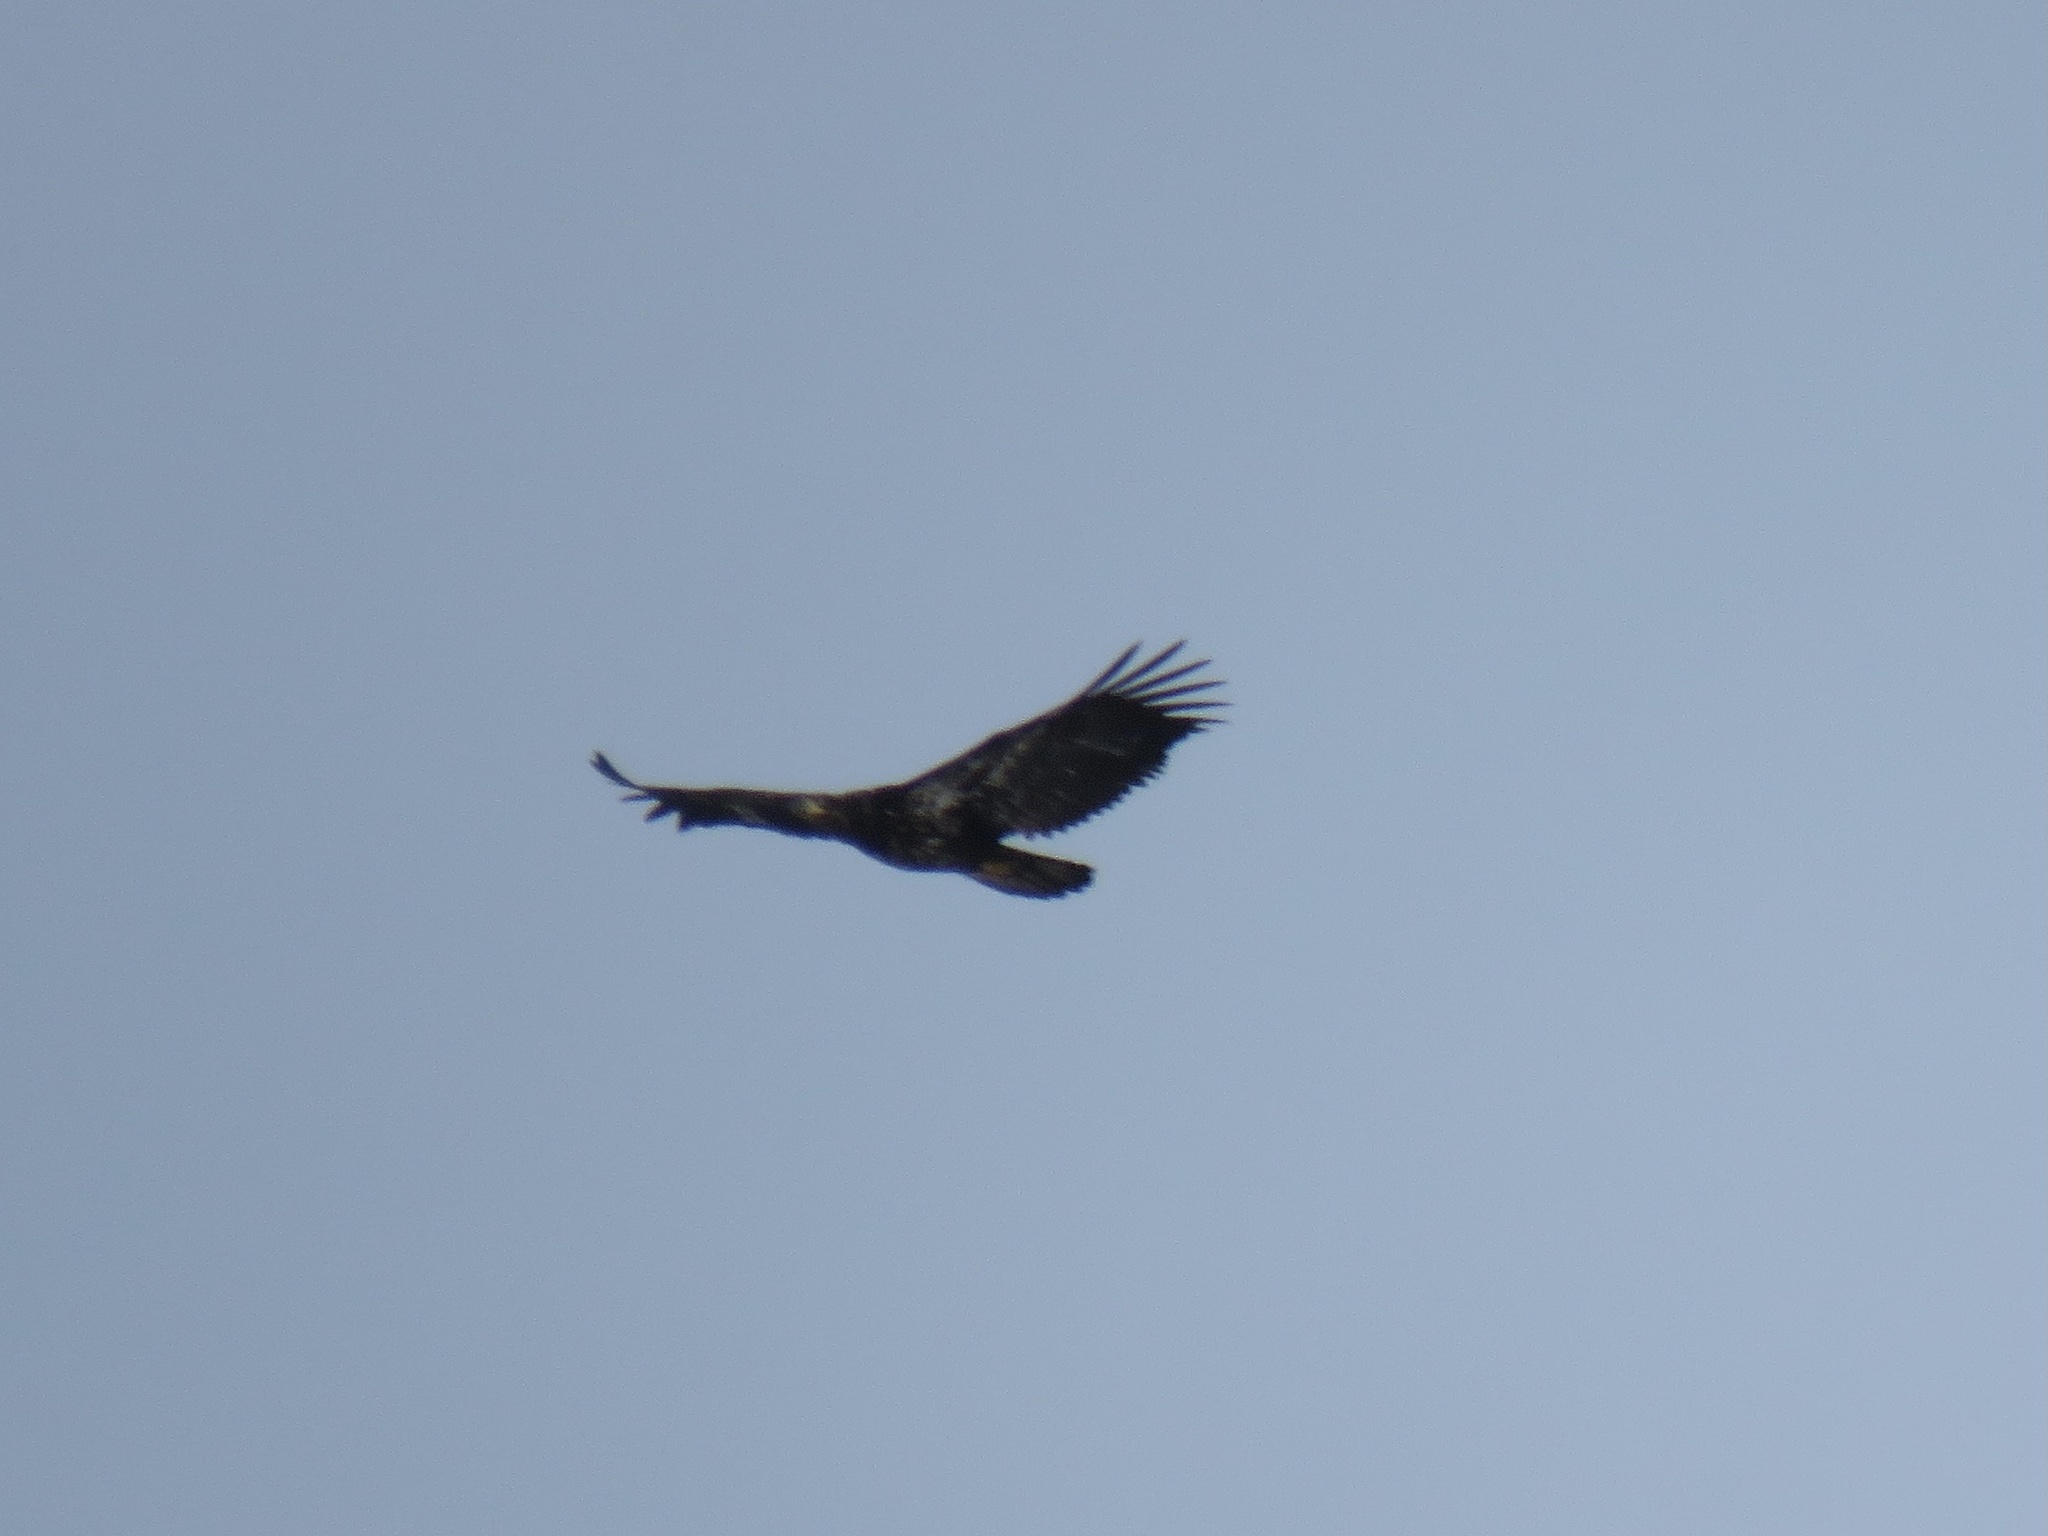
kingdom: Animalia
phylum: Chordata
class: Aves
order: Accipitriformes
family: Accipitridae
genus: Haliaeetus
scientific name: Haliaeetus leucocephalus
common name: Bald eagle
